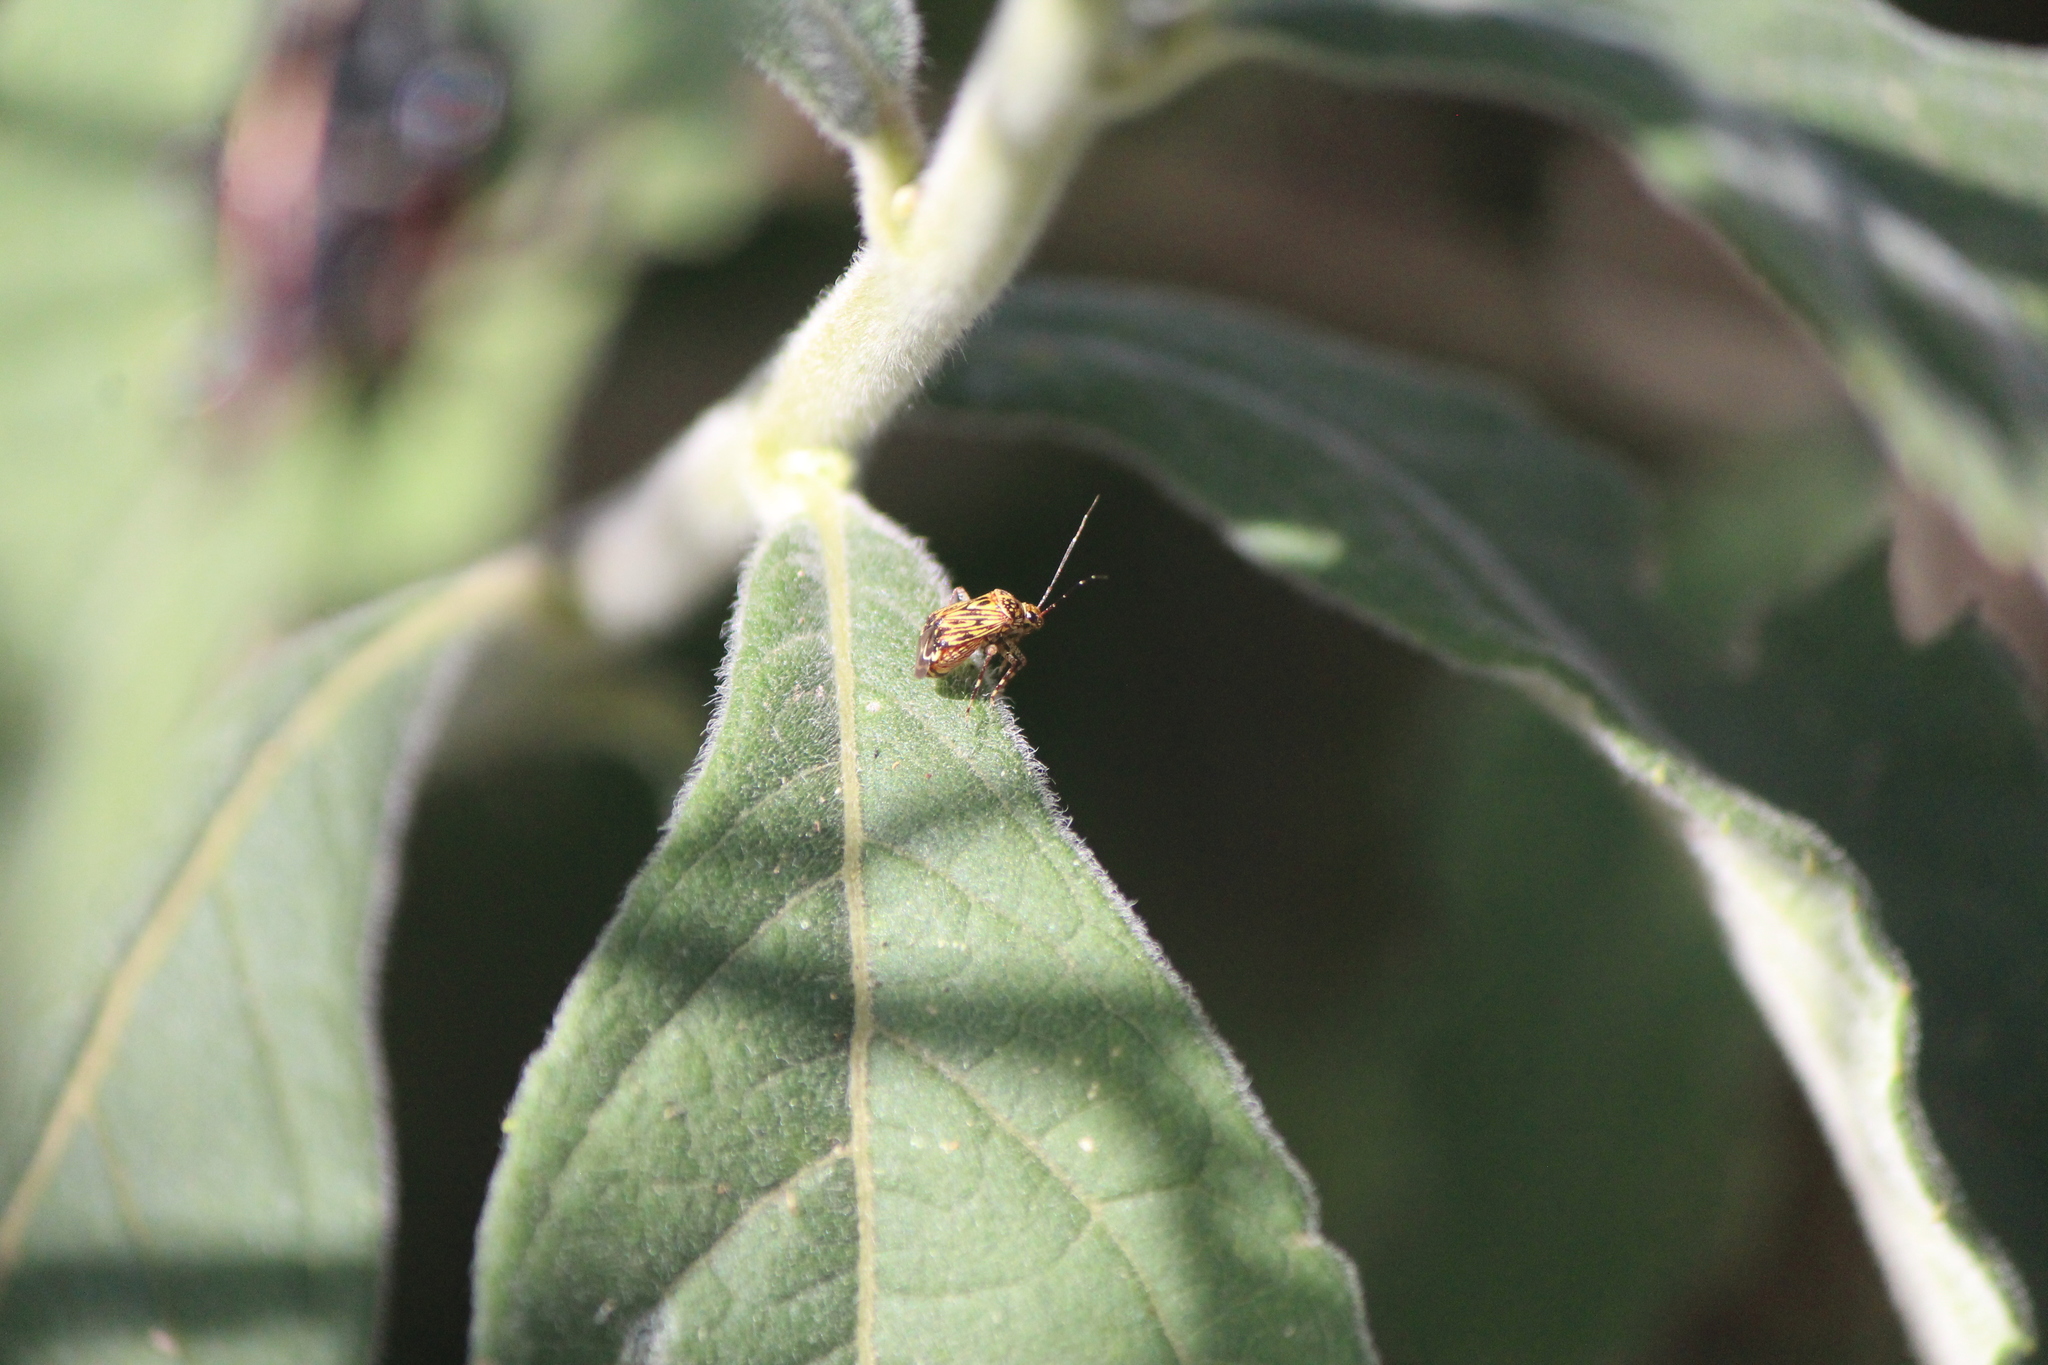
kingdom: Animalia
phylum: Arthropoda
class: Insecta
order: Hemiptera
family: Miridae
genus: Taedia
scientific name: Taedia fasciola
